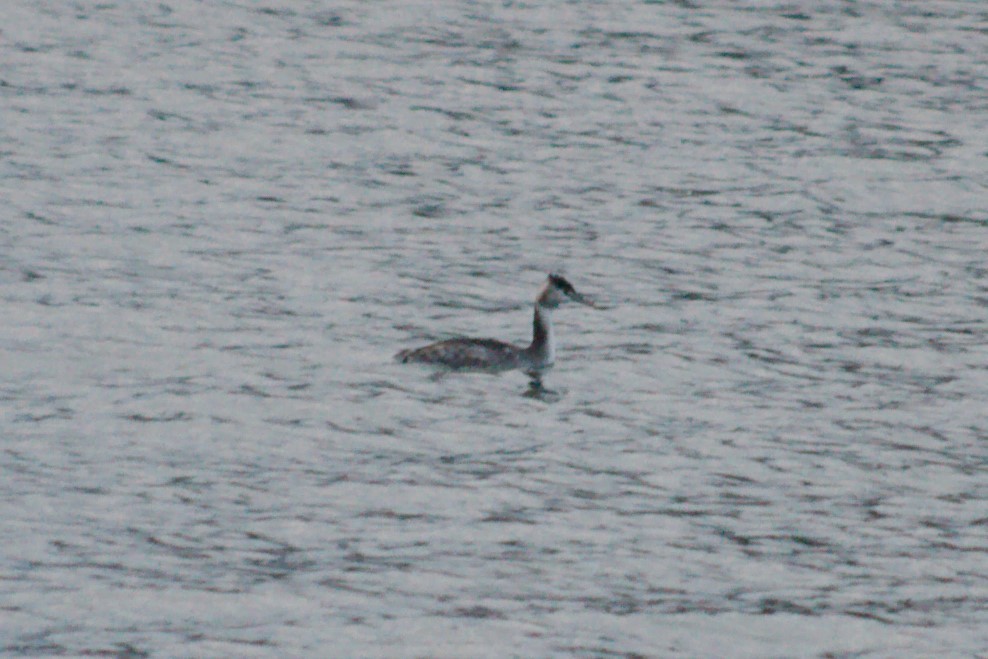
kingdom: Animalia
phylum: Chordata
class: Aves
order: Podicipediformes
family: Podicipedidae
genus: Podiceps
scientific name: Podiceps cristatus
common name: Great crested grebe
